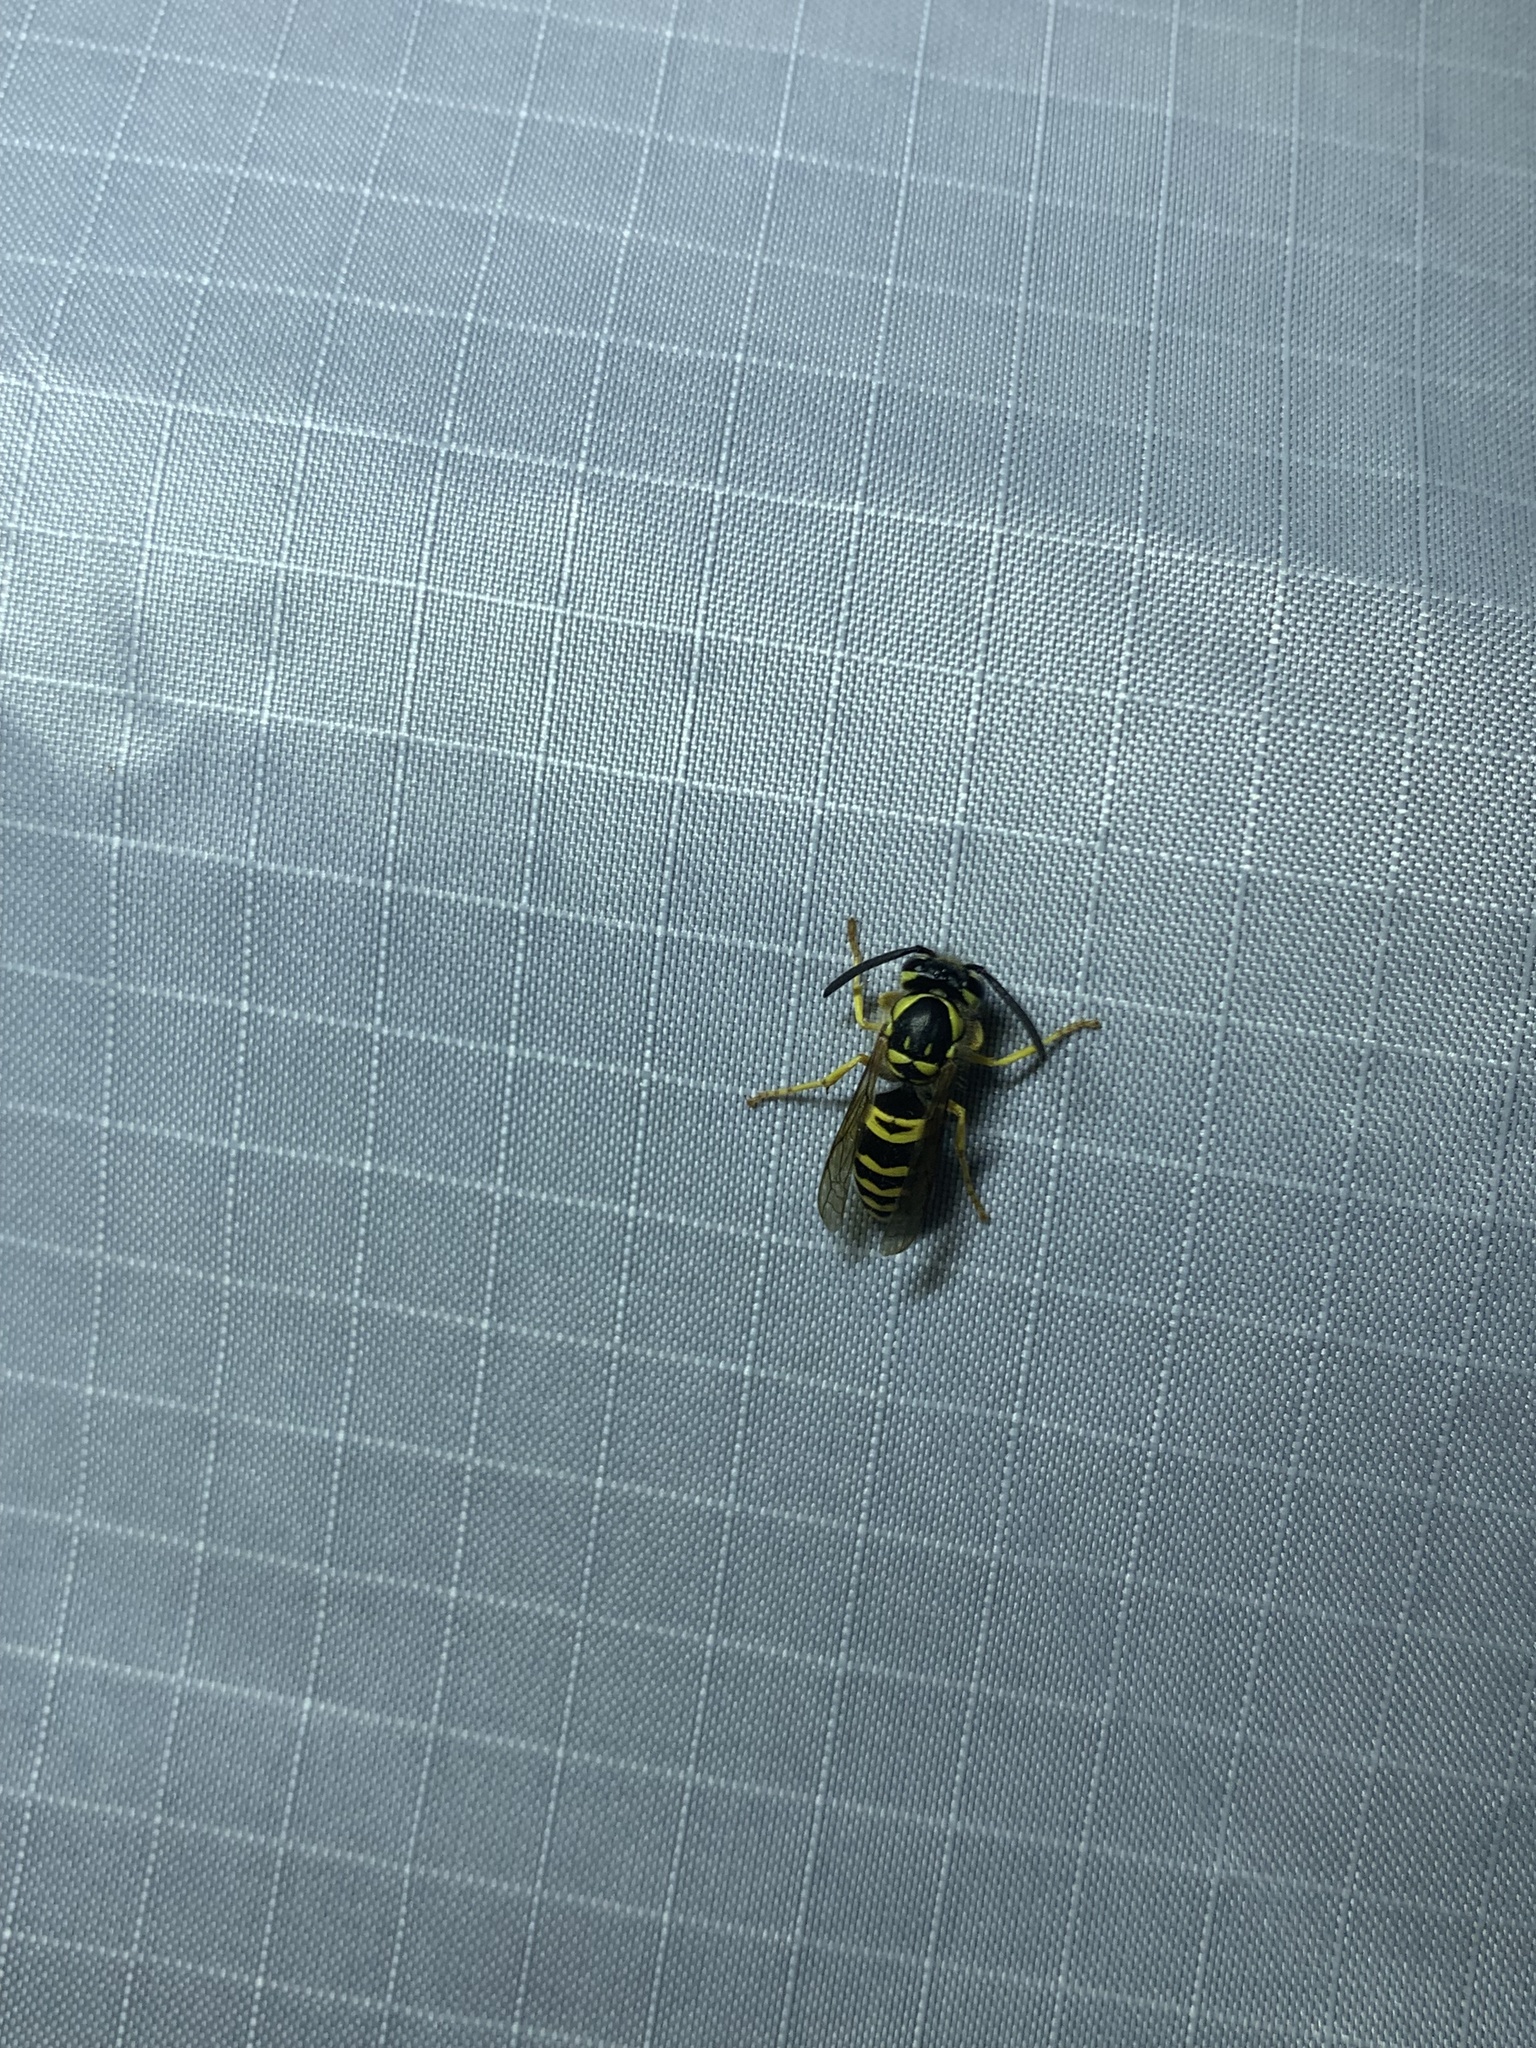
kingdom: Animalia
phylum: Arthropoda
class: Insecta
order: Hymenoptera
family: Vespidae
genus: Vespula
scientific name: Vespula maculifrons
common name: Eastern yellowjacket
